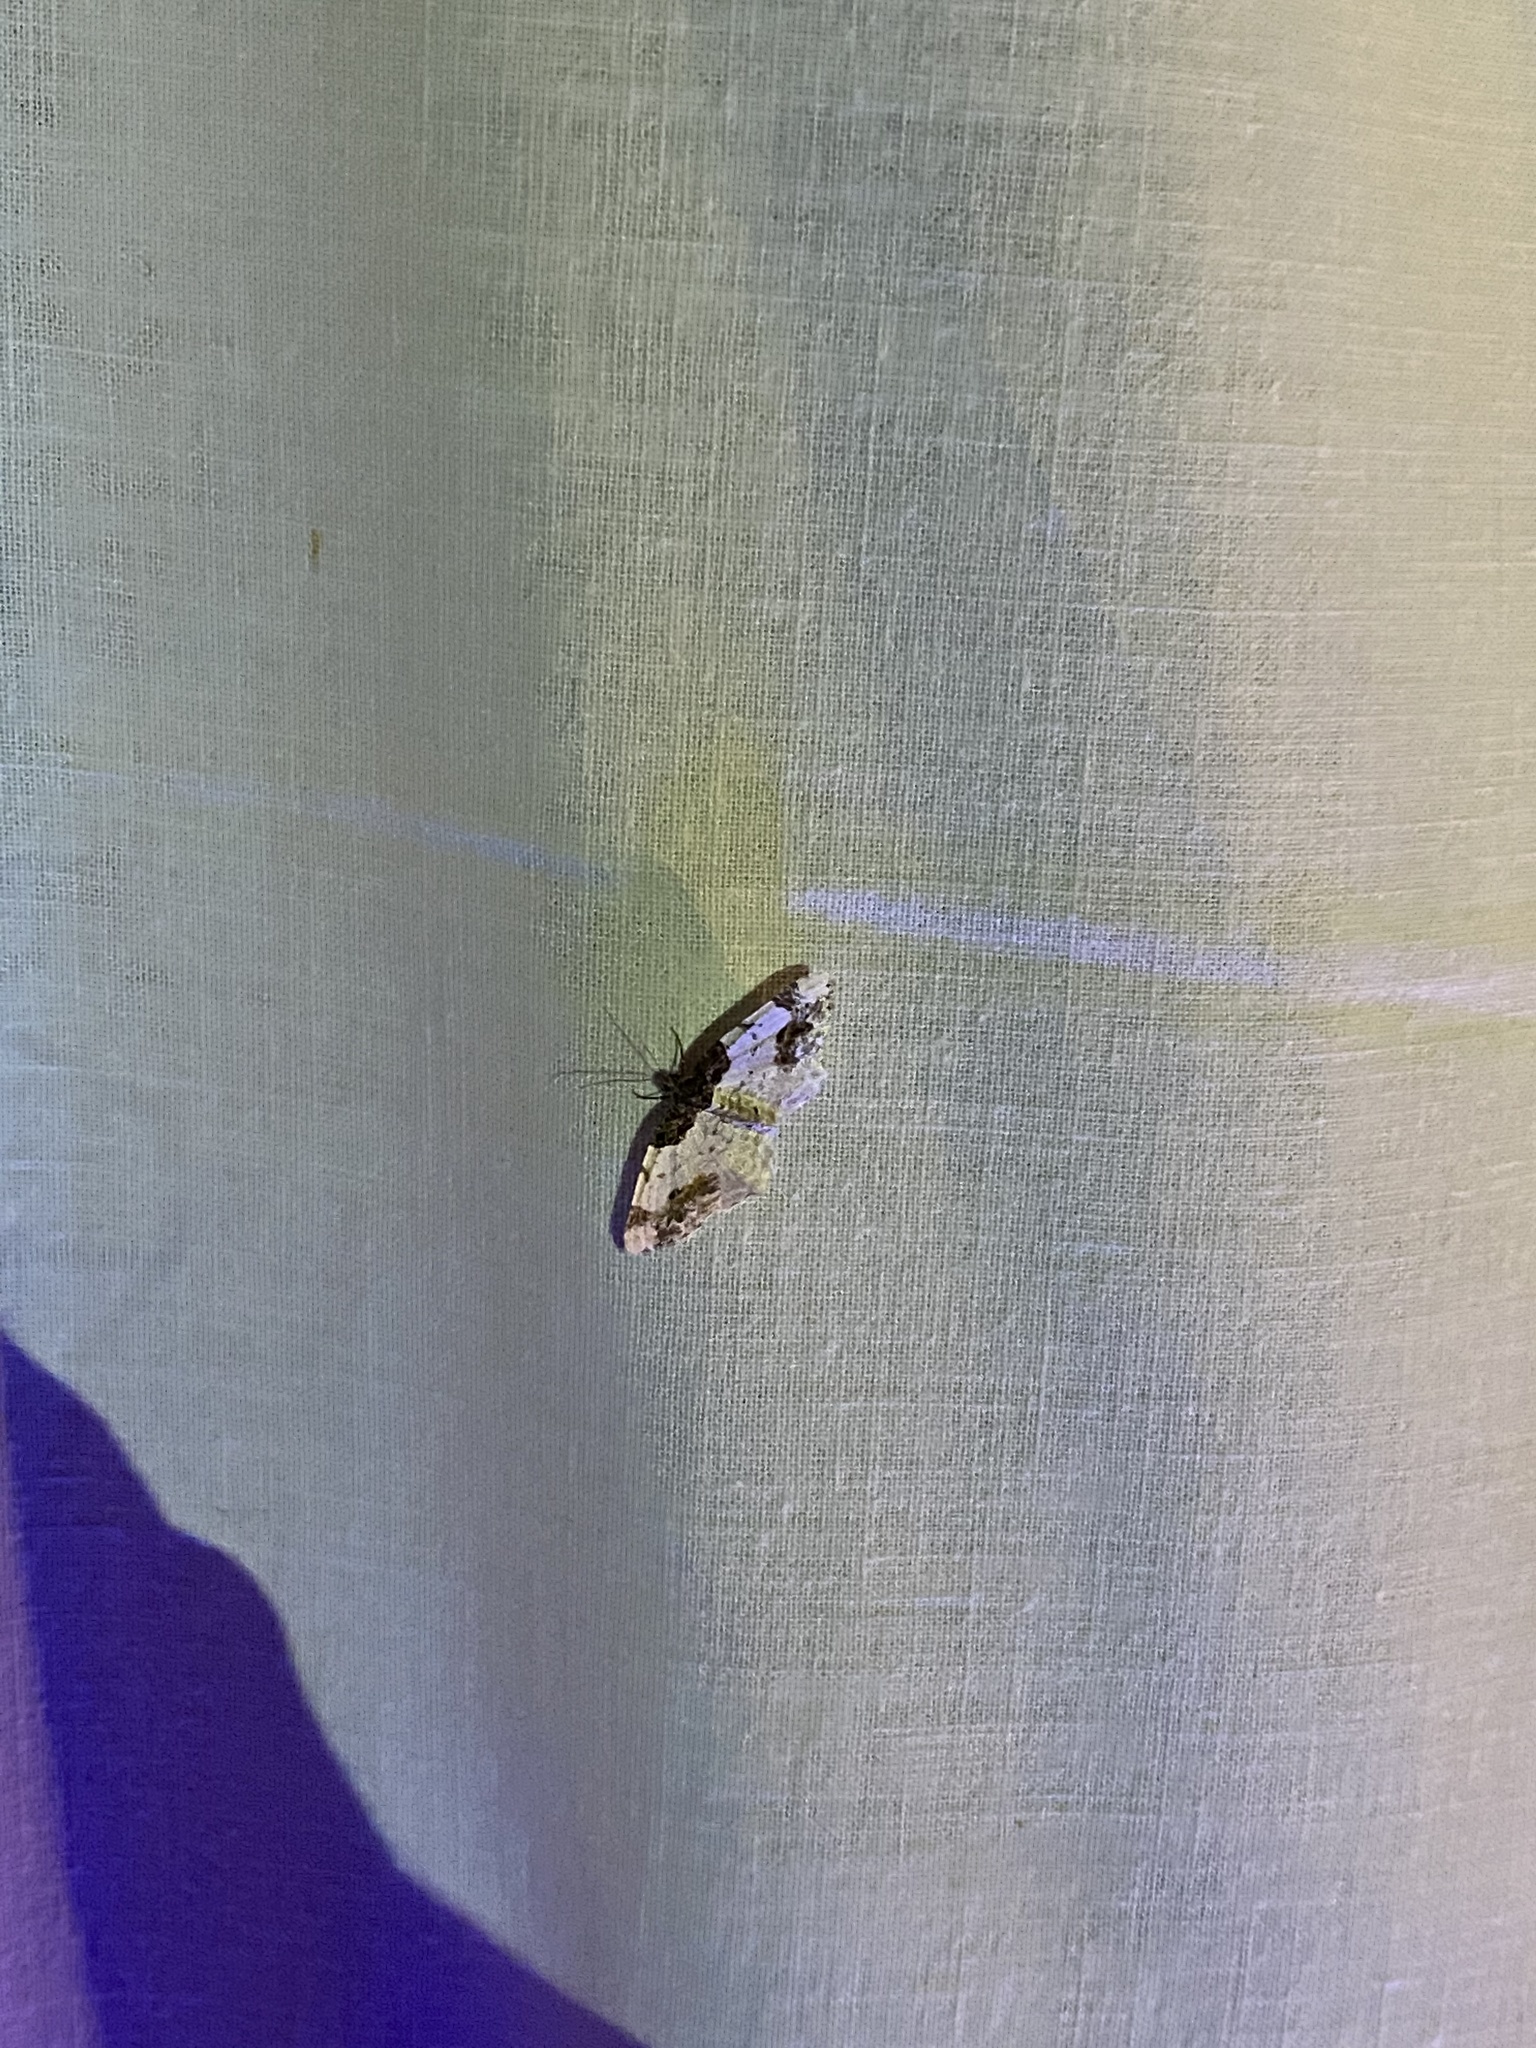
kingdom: Animalia
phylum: Arthropoda
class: Insecta
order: Lepidoptera
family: Geometridae
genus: Ligdia
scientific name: Ligdia adustata
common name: Scorched carpet
